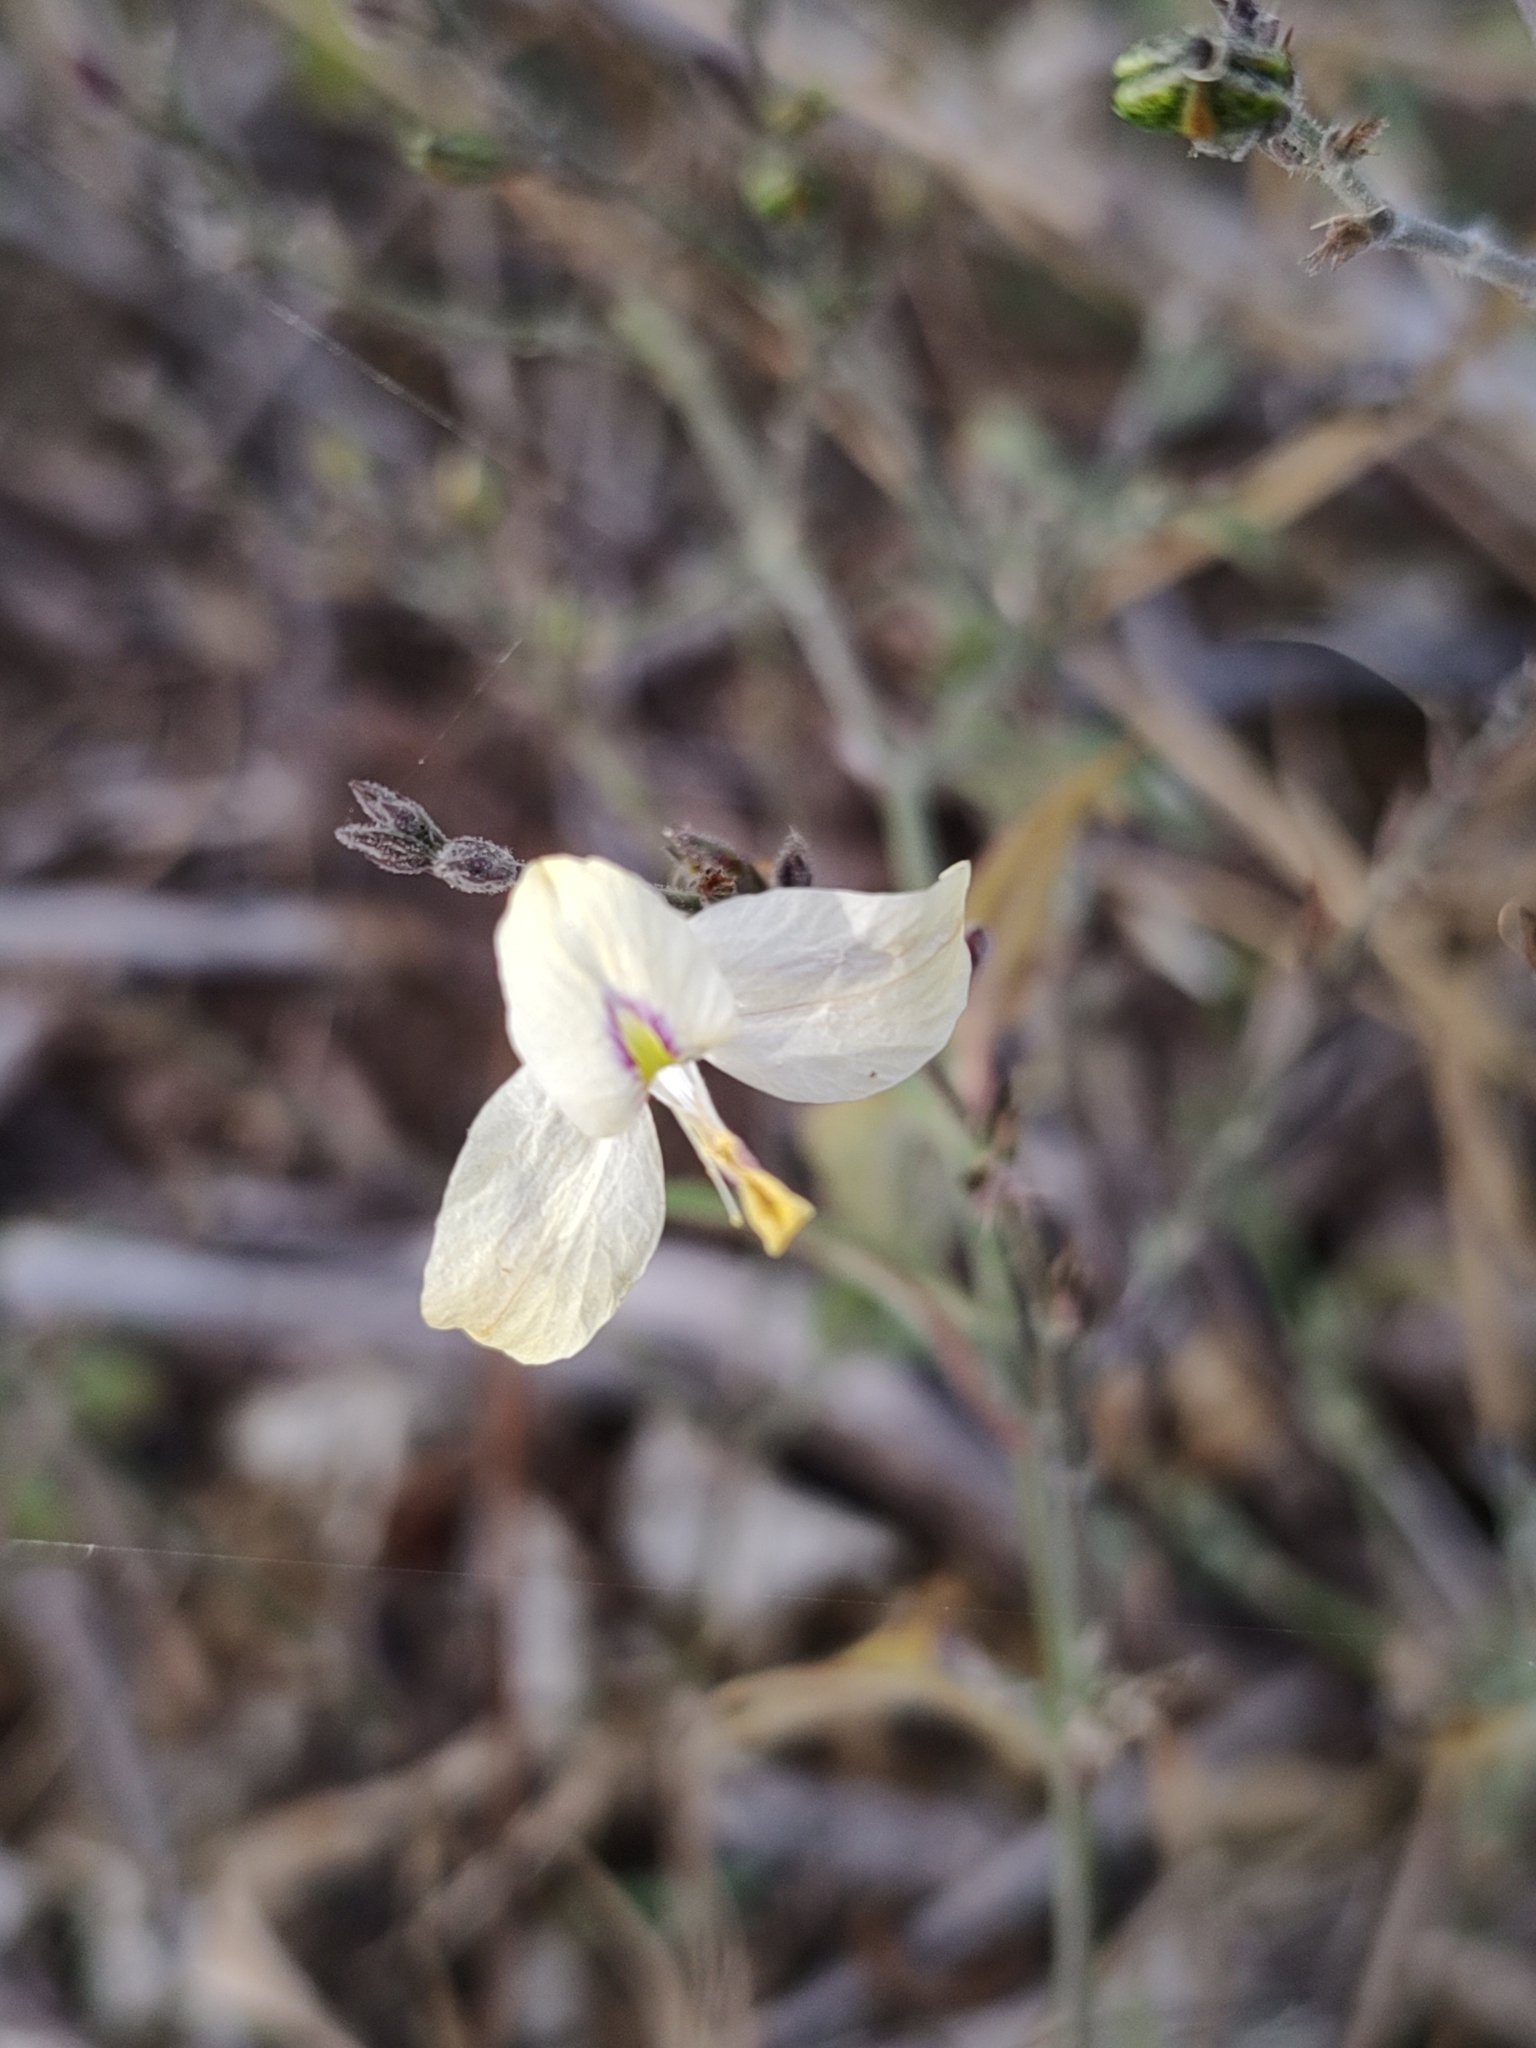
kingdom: Plantae
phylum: Tracheophyta
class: Magnoliopsida
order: Lamiales
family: Acanthaceae
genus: Carlowrightia
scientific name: Carlowrightia arizonica
